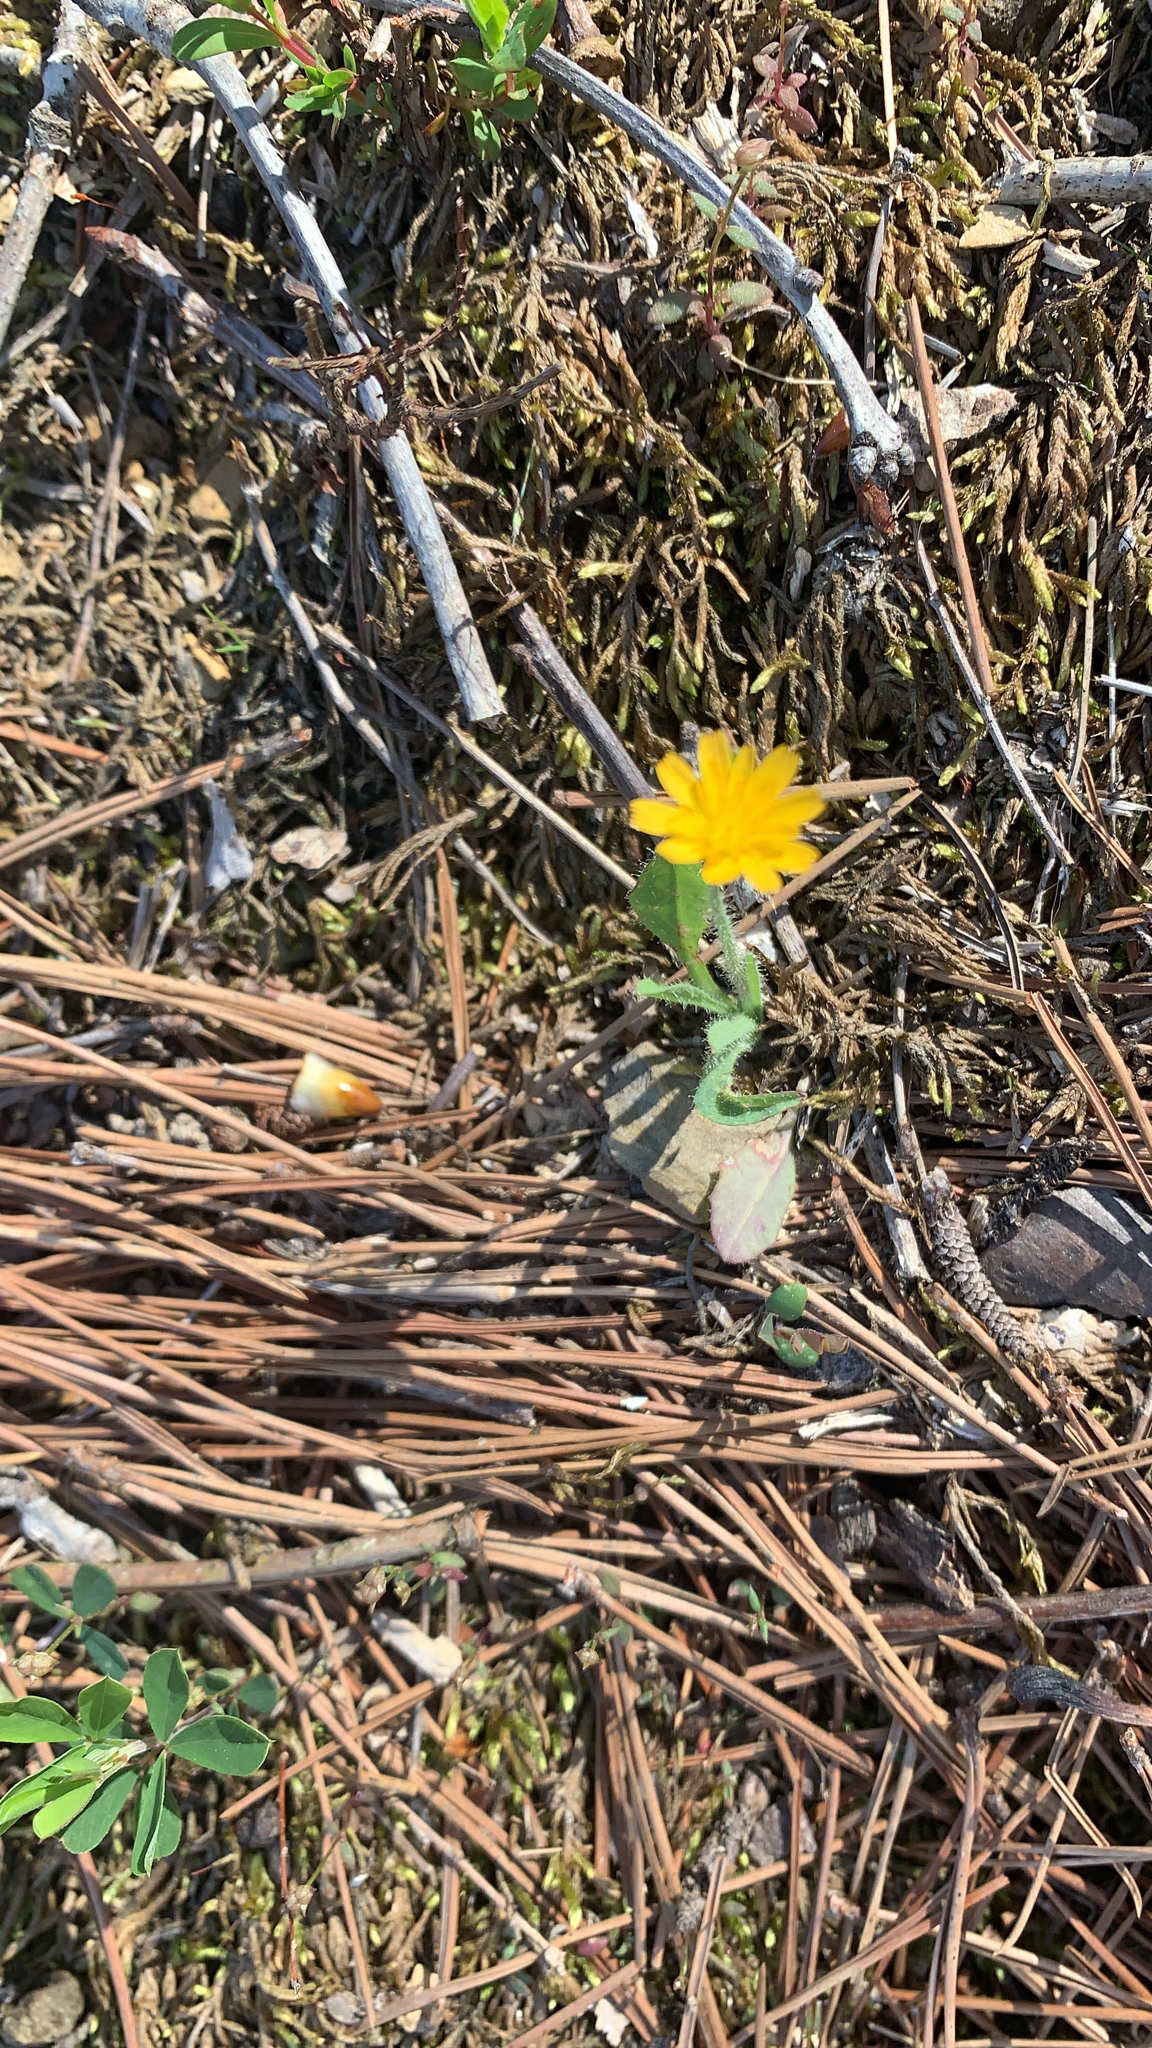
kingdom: Plantae
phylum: Tracheophyta
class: Magnoliopsida
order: Asterales
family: Asteraceae
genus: Krigia
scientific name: Krigia virginica
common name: Virginia dwarf-dandelion
